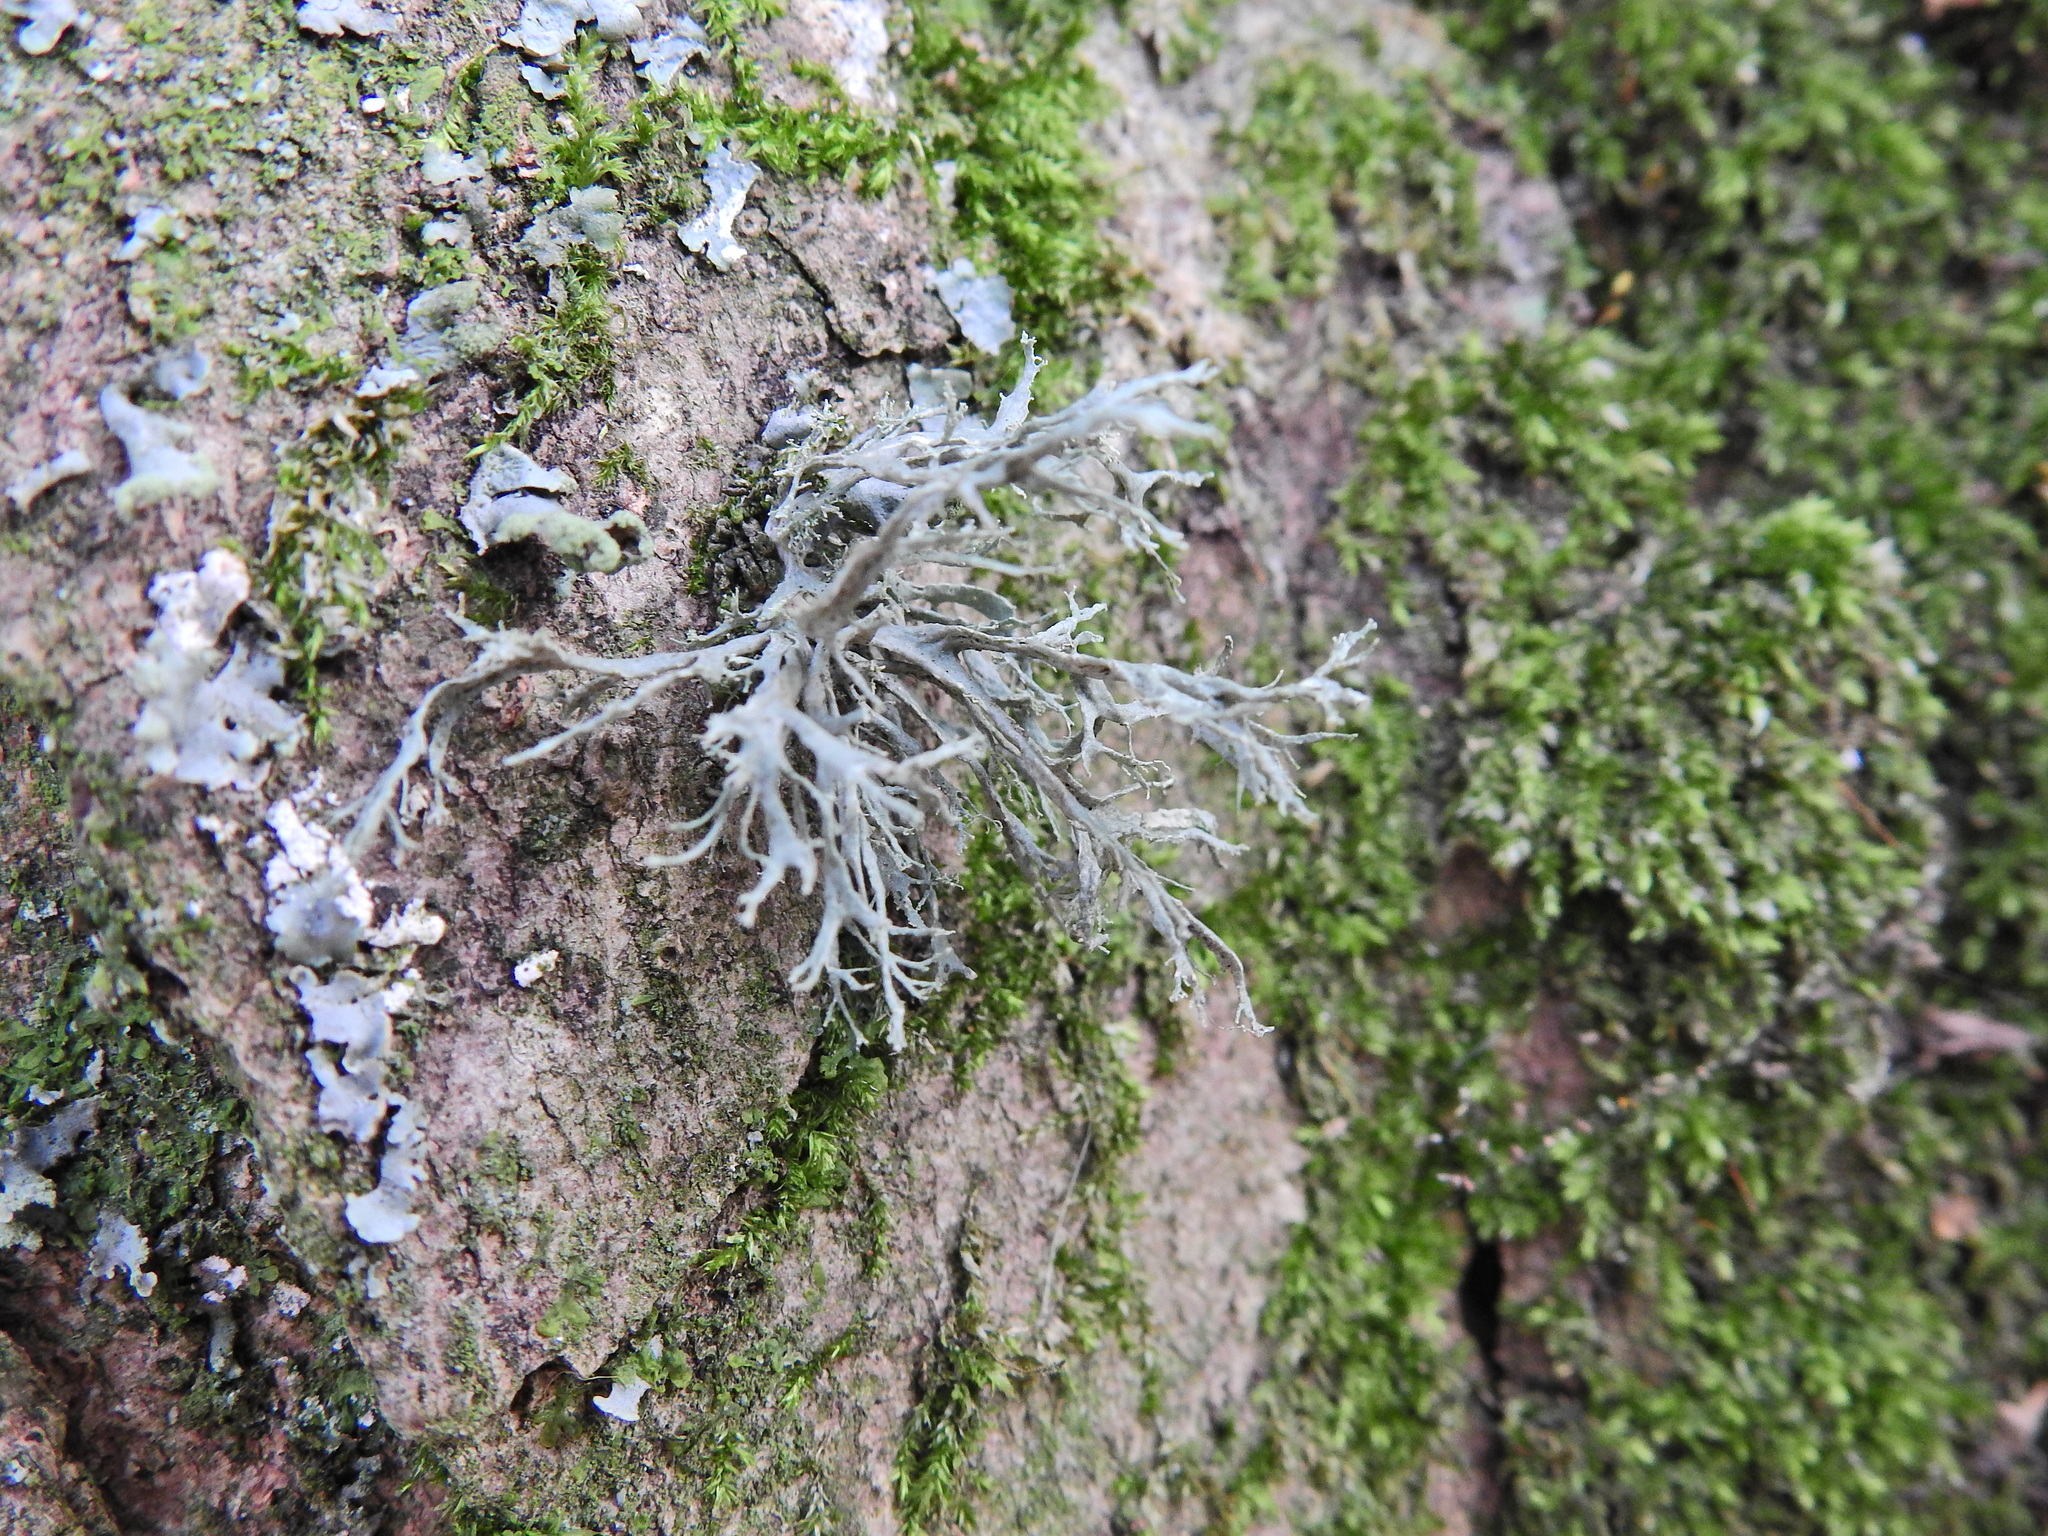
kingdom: Fungi
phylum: Ascomycota
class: Lecanoromycetes
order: Lecanorales
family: Ramalinaceae
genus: Ramalina
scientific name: Ramalina farinacea
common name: Farinose cartilage lichen
